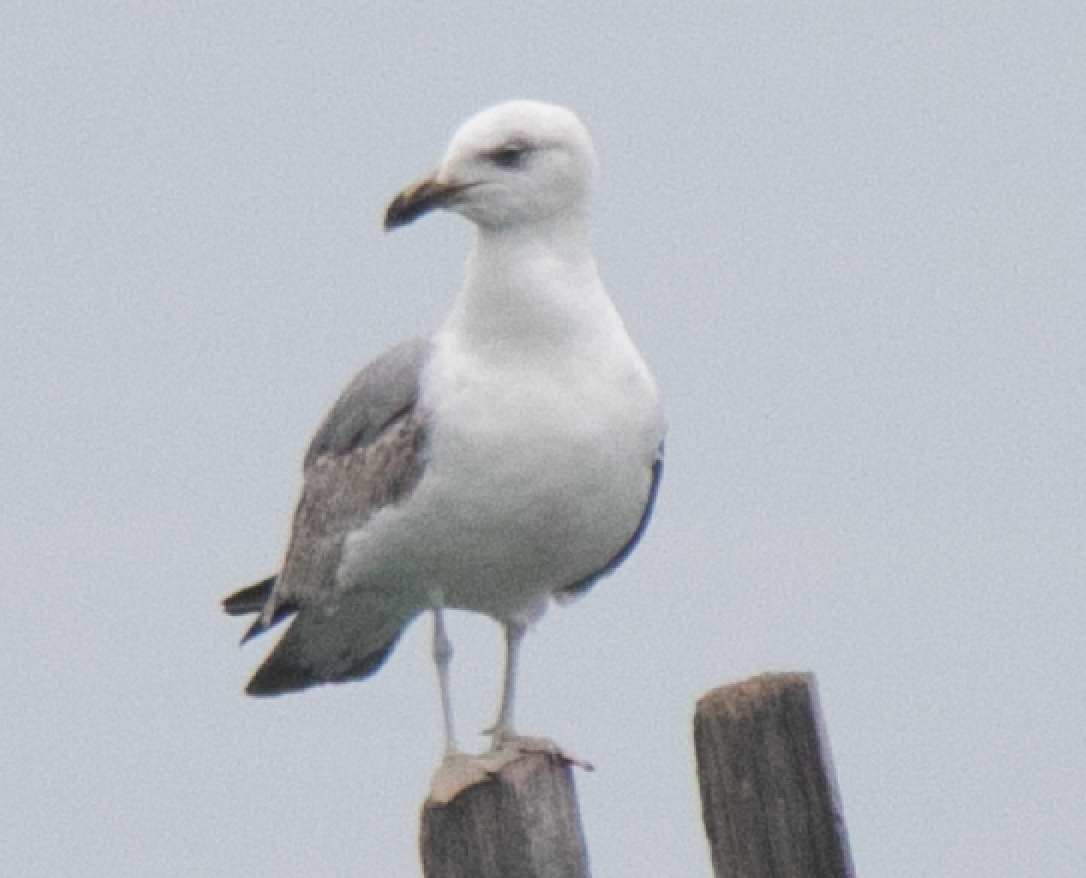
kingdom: Animalia
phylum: Chordata
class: Aves
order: Charadriiformes
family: Laridae
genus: Larus
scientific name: Larus michahellis
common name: Yellow-legged gull
